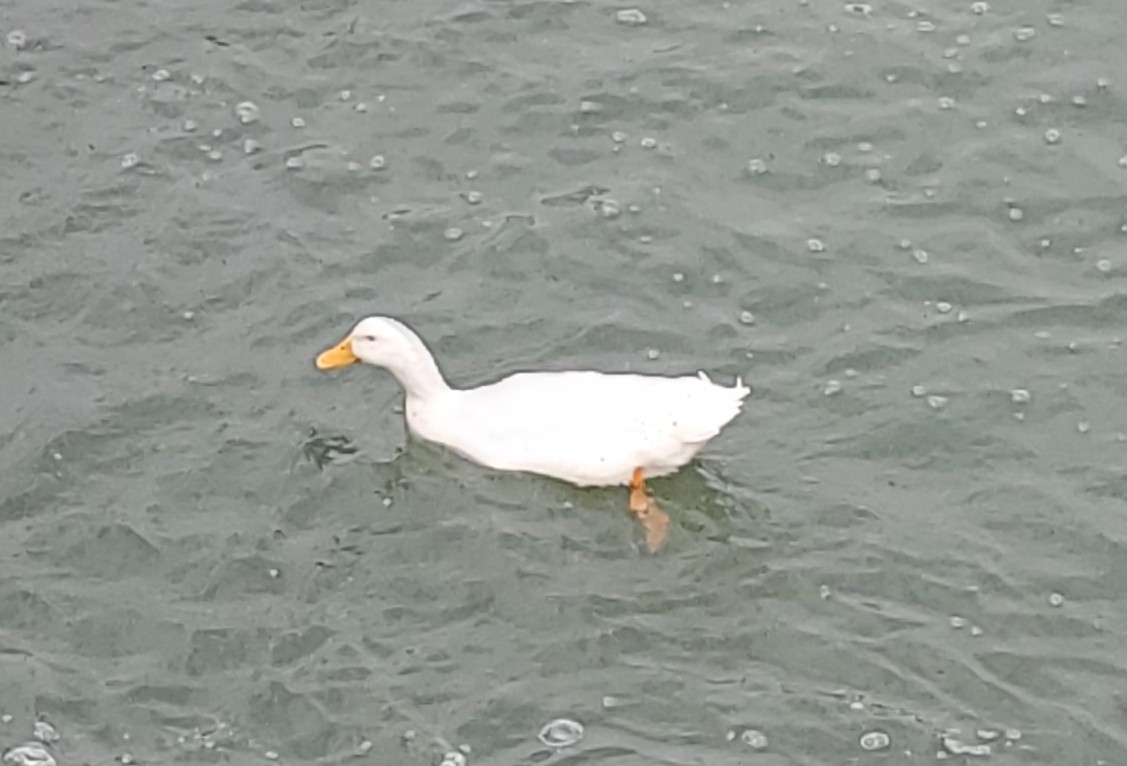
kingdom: Animalia
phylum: Chordata
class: Aves
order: Anseriformes
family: Anatidae
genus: Anas
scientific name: Anas platyrhynchos
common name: Mallard
